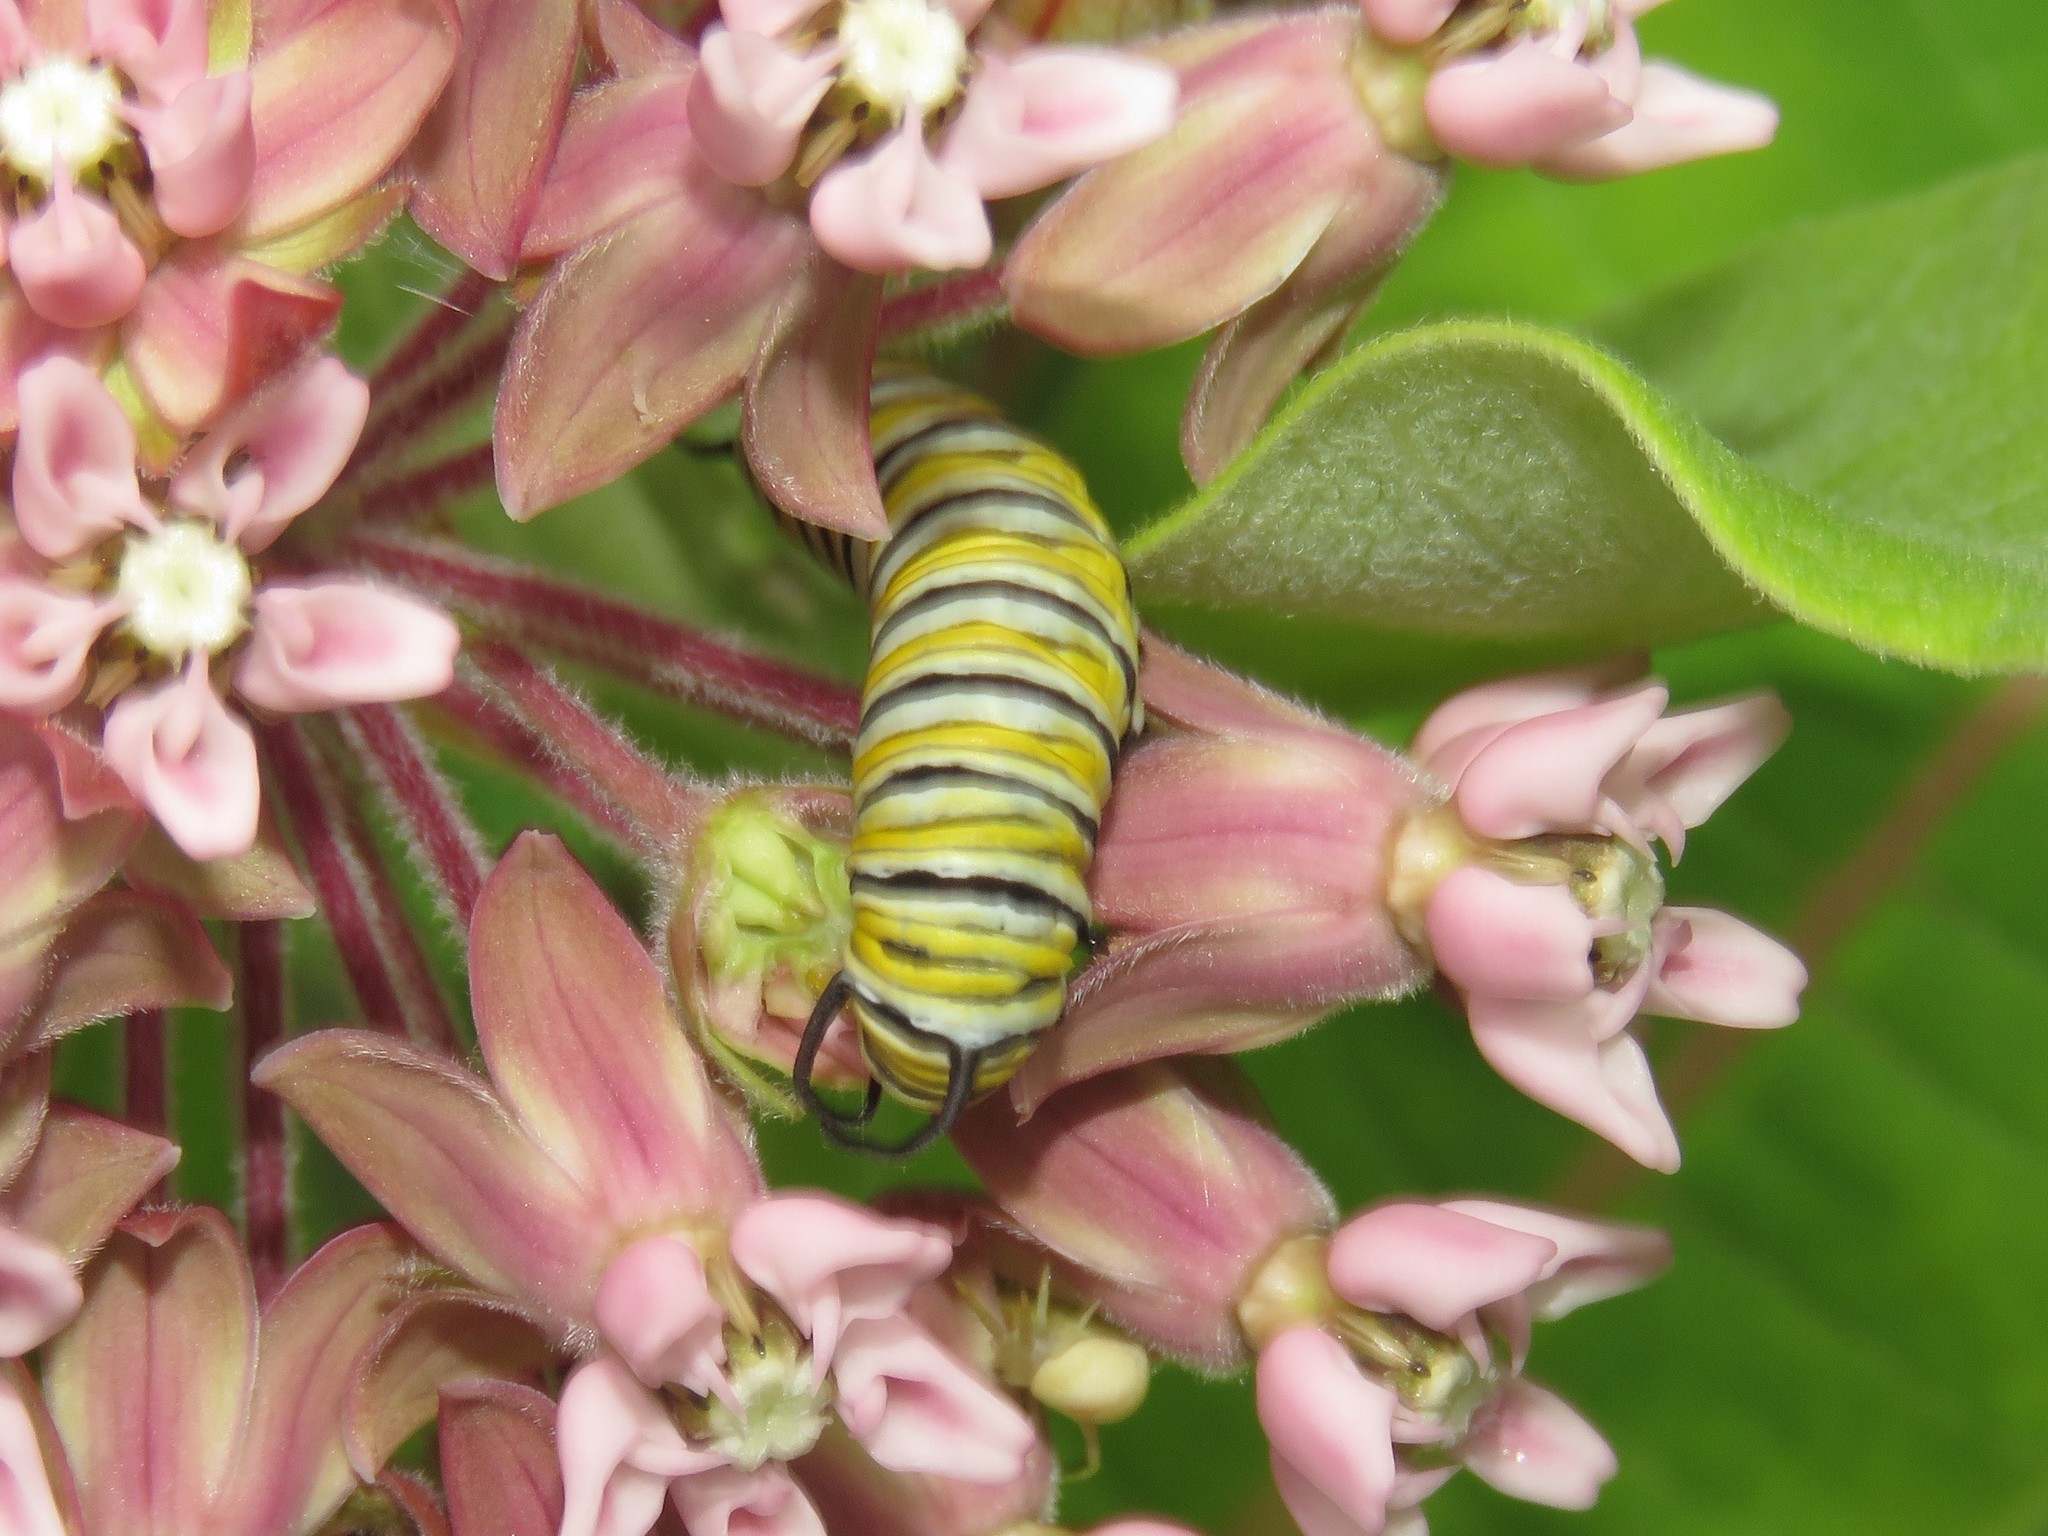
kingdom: Animalia
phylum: Arthropoda
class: Insecta
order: Lepidoptera
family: Nymphalidae
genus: Danaus
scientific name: Danaus plexippus
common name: Monarch
